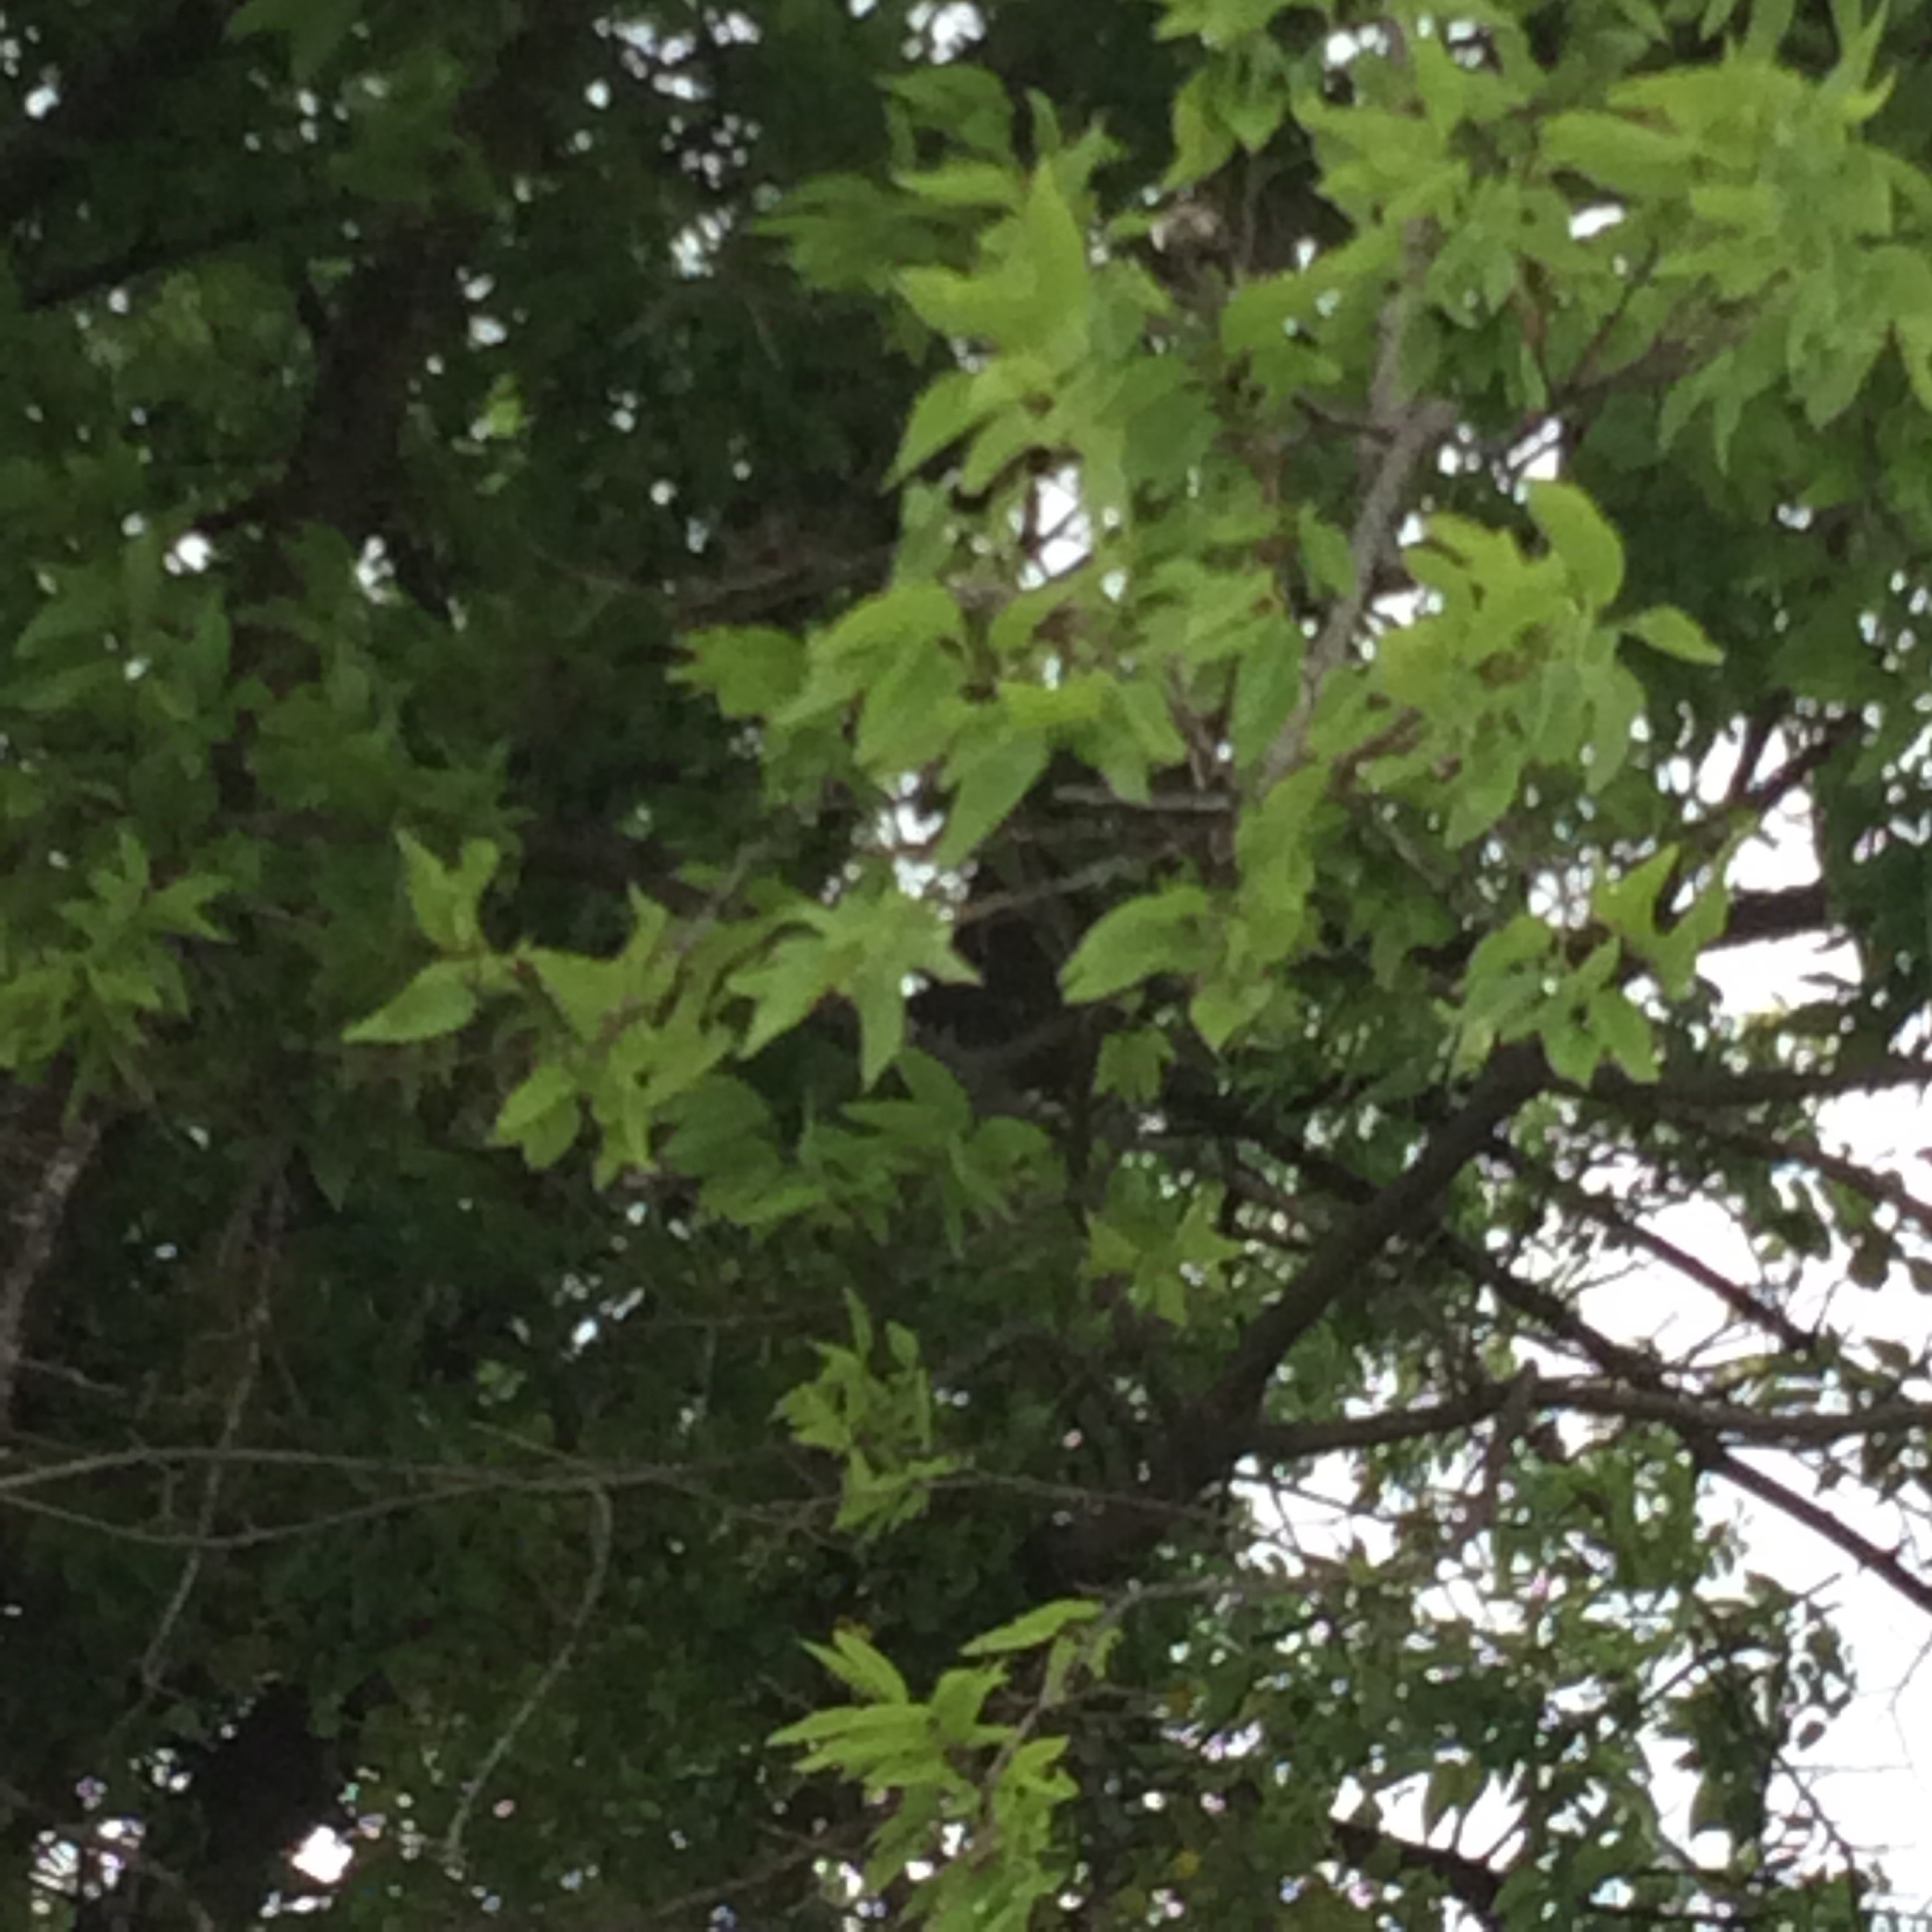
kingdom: Plantae
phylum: Tracheophyta
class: Magnoliopsida
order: Rosales
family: Cannabaceae
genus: Celtis
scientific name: Celtis laevigata
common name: Sugarberry
